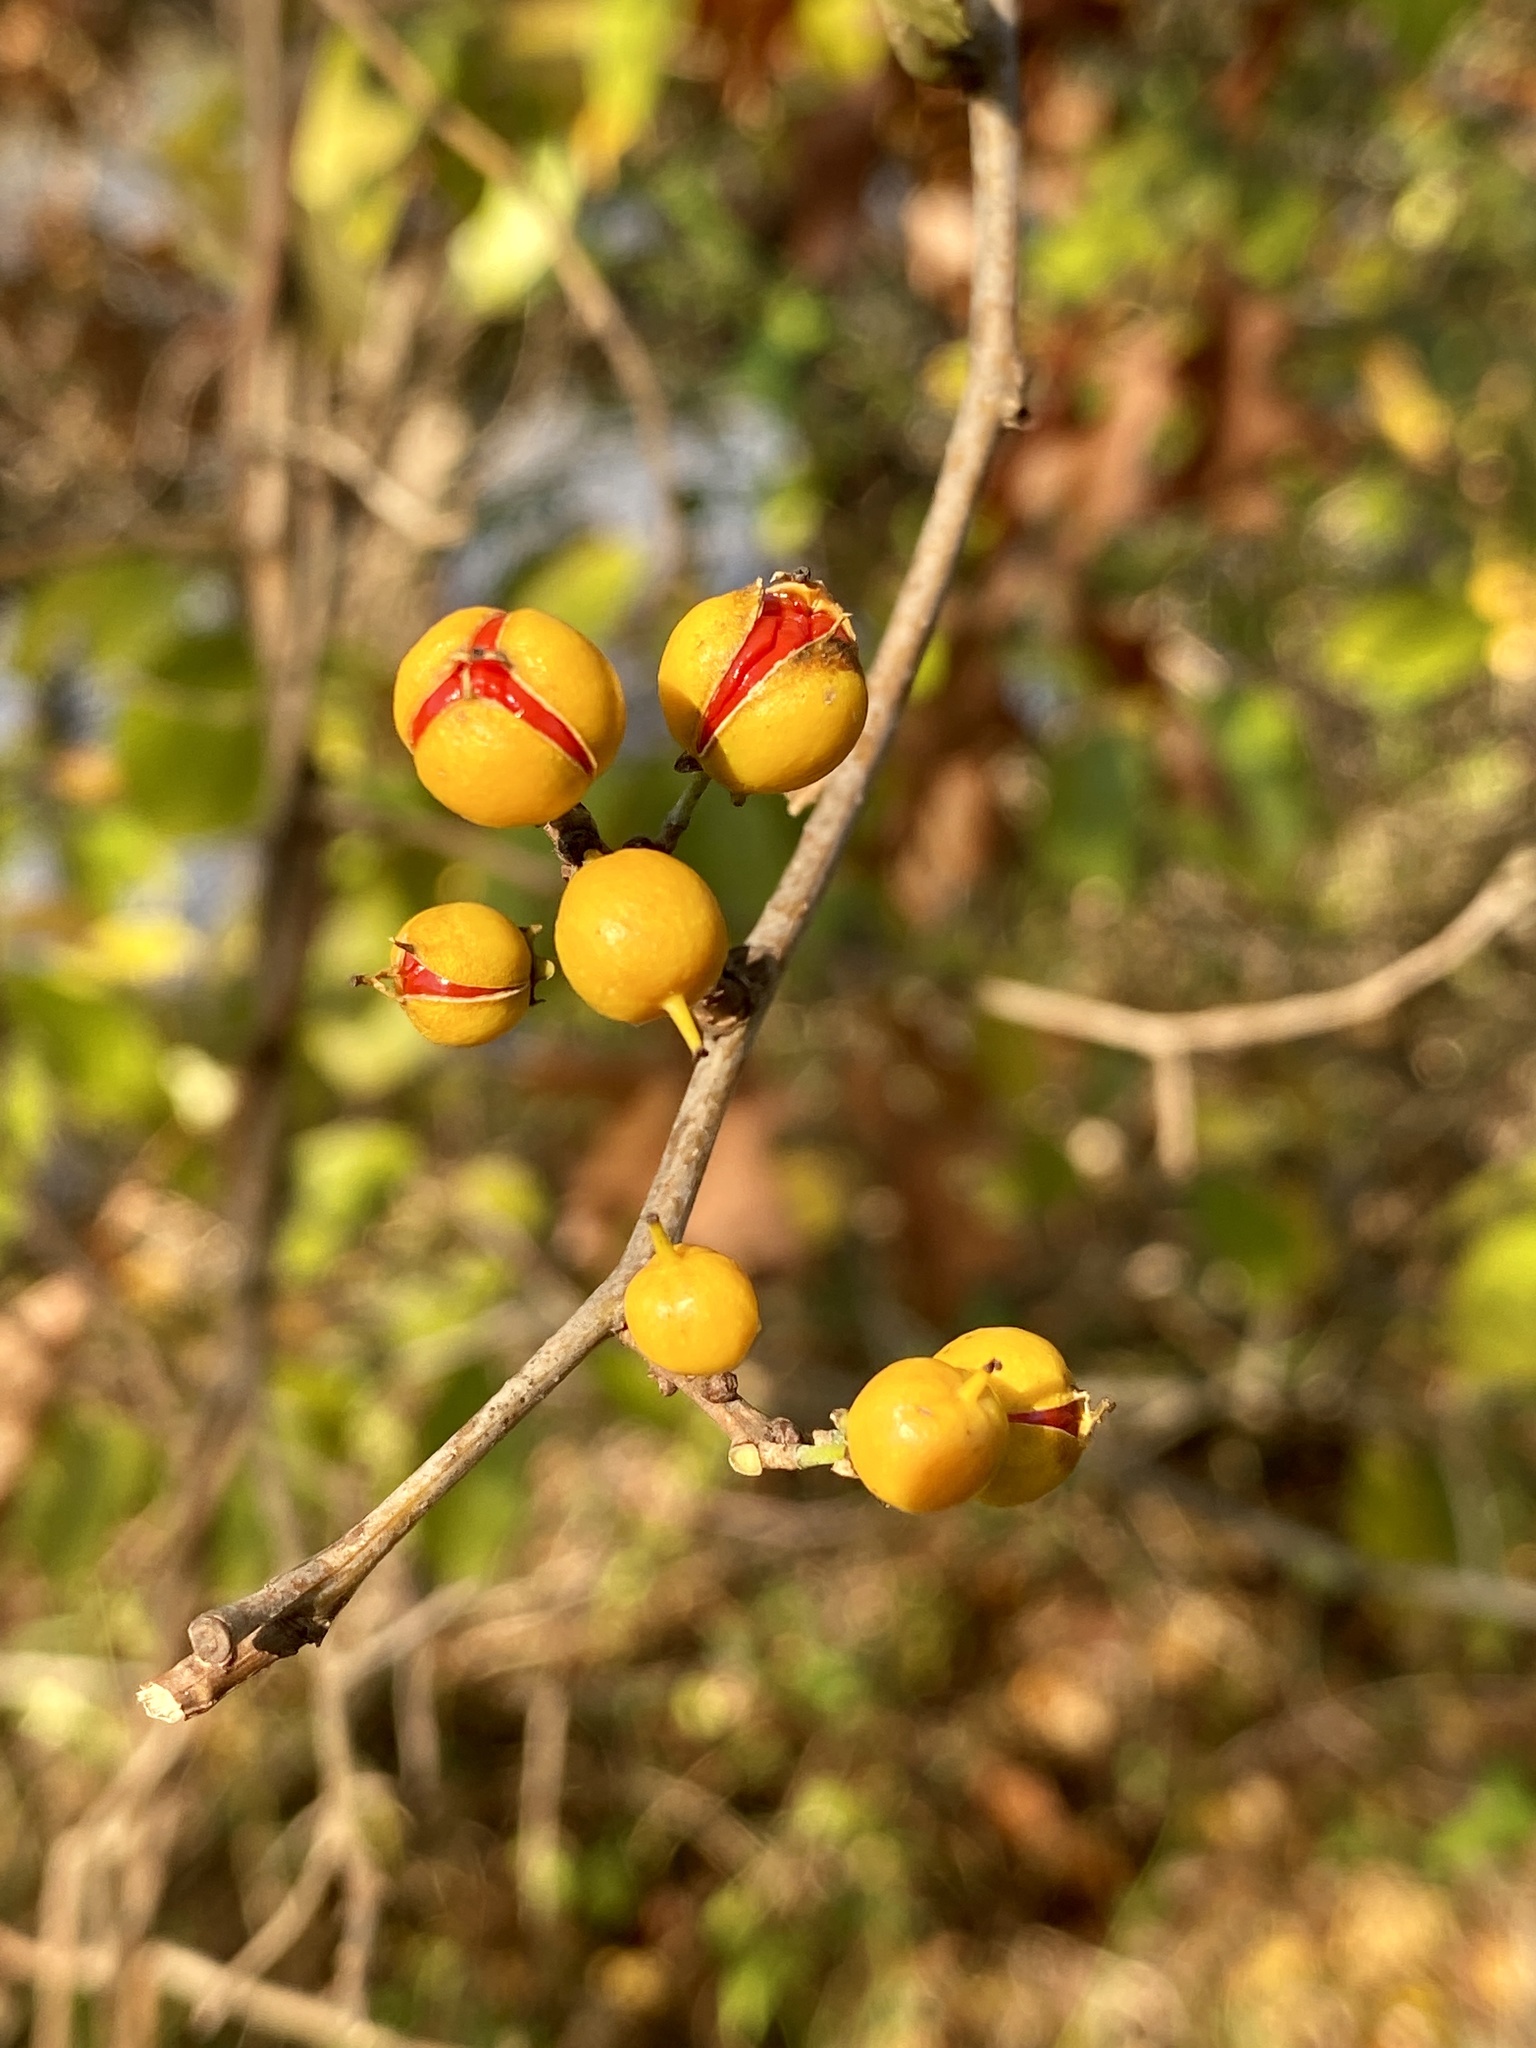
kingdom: Plantae
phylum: Tracheophyta
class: Magnoliopsida
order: Celastrales
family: Celastraceae
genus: Celastrus
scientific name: Celastrus orbiculatus
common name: Oriental bittersweet
